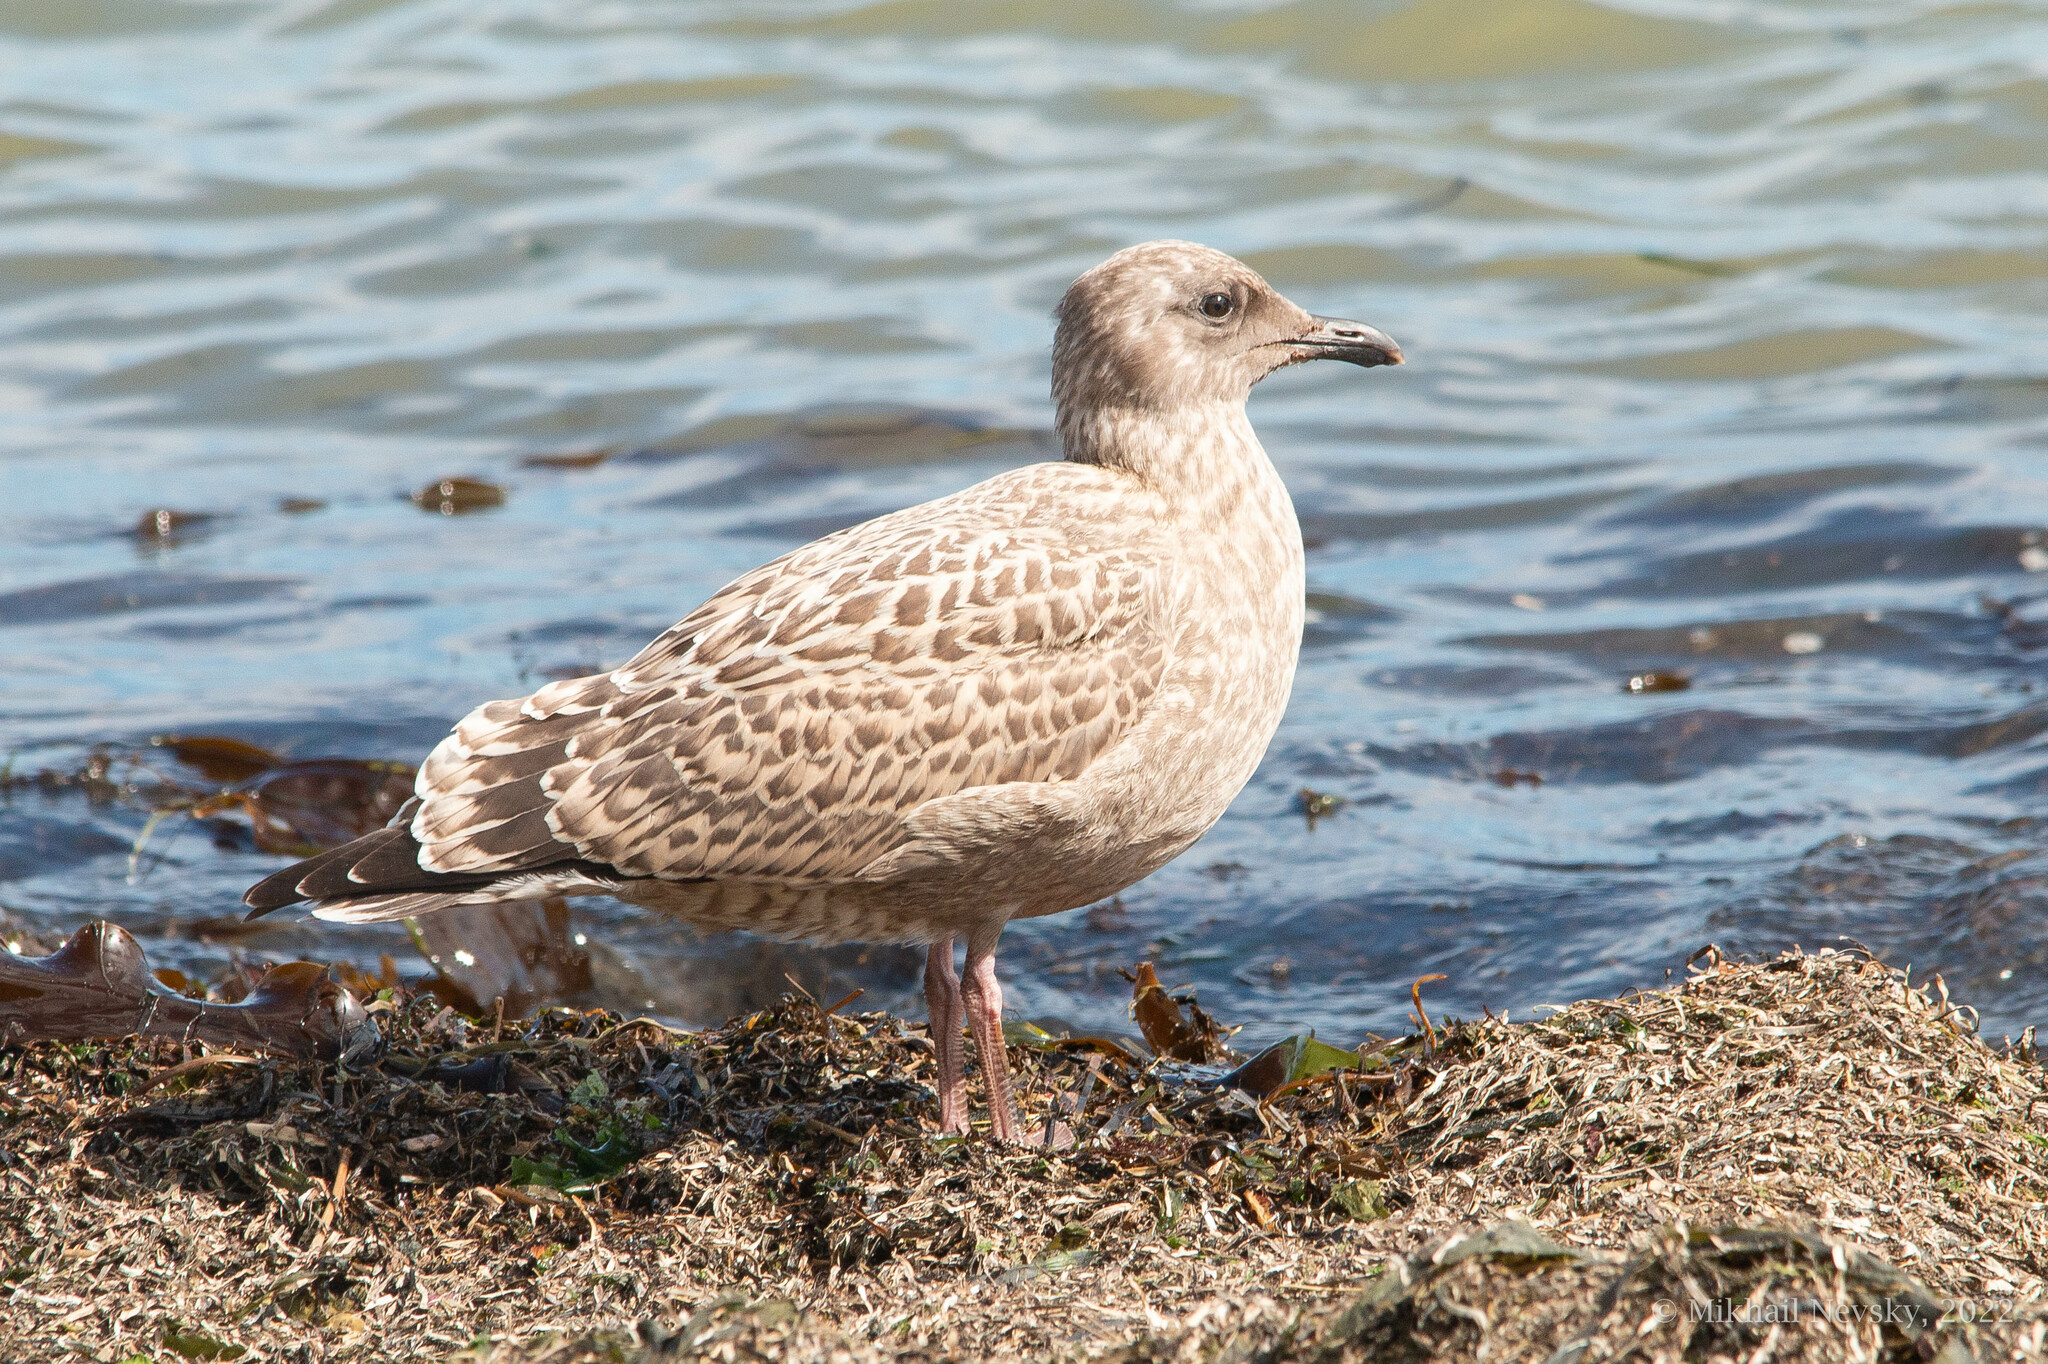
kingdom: Animalia
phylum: Chordata
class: Aves
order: Charadriiformes
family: Laridae
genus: Larus
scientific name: Larus schistisagus
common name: Slaty-backed gull
